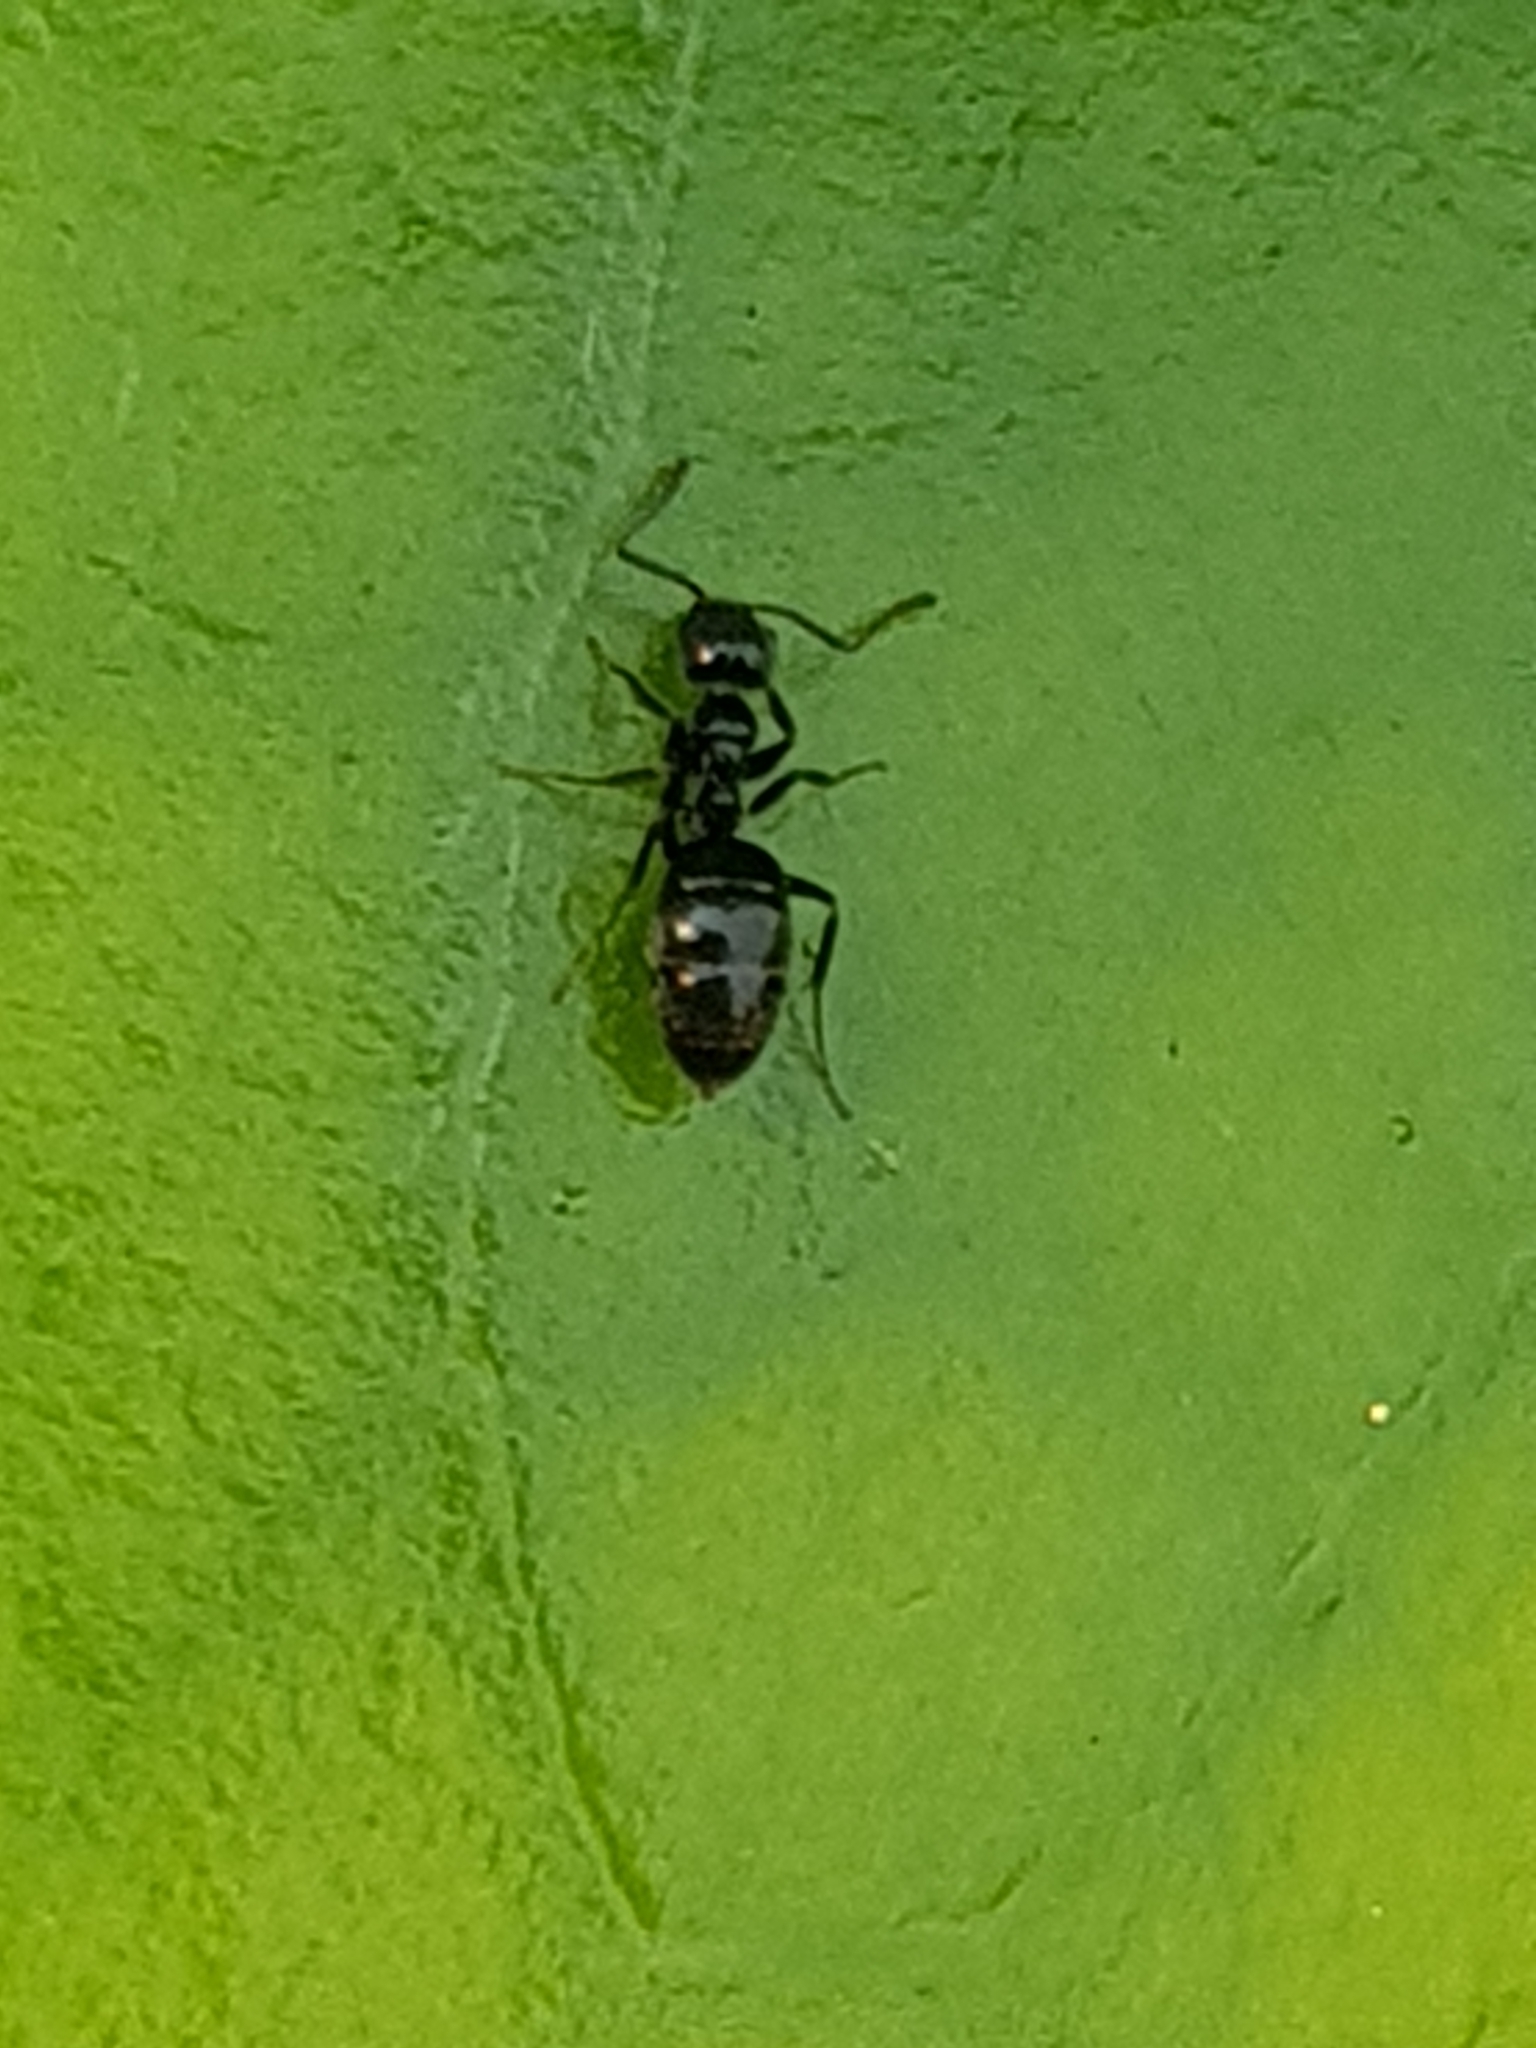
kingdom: Animalia
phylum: Arthropoda
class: Insecta
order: Hymenoptera
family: Formicidae
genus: Technomyrmex
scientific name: Technomyrmex jocosus
